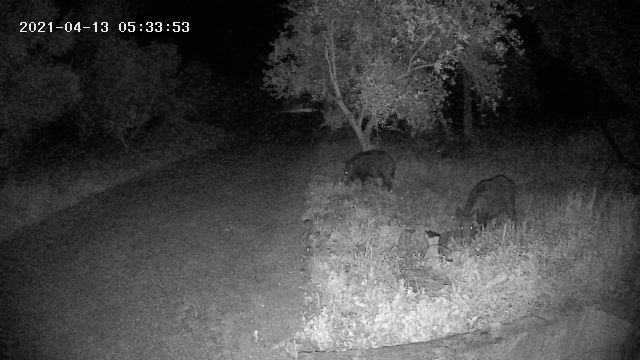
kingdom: Animalia
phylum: Chordata
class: Mammalia
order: Artiodactyla
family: Suidae
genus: Sus
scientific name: Sus scrofa
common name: Wild boar
